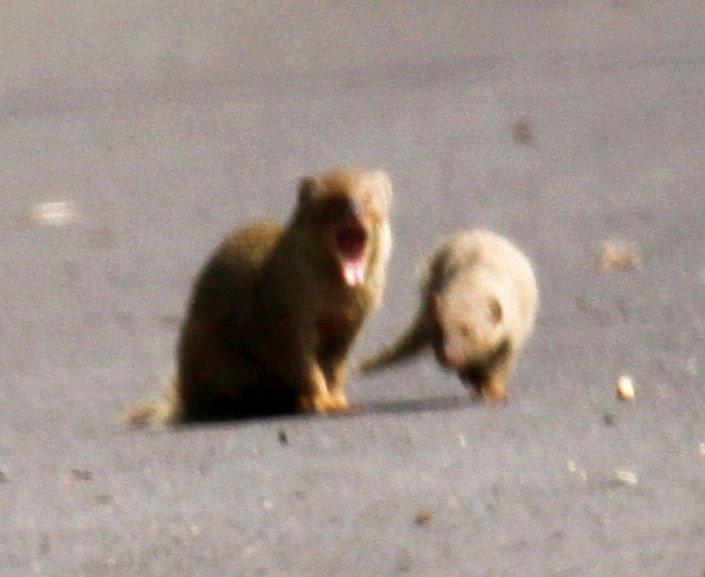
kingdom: Animalia
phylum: Chordata
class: Mammalia
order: Carnivora
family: Herpestidae
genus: Herpestes
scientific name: Herpestes javanicus
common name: Small asian mongoose
